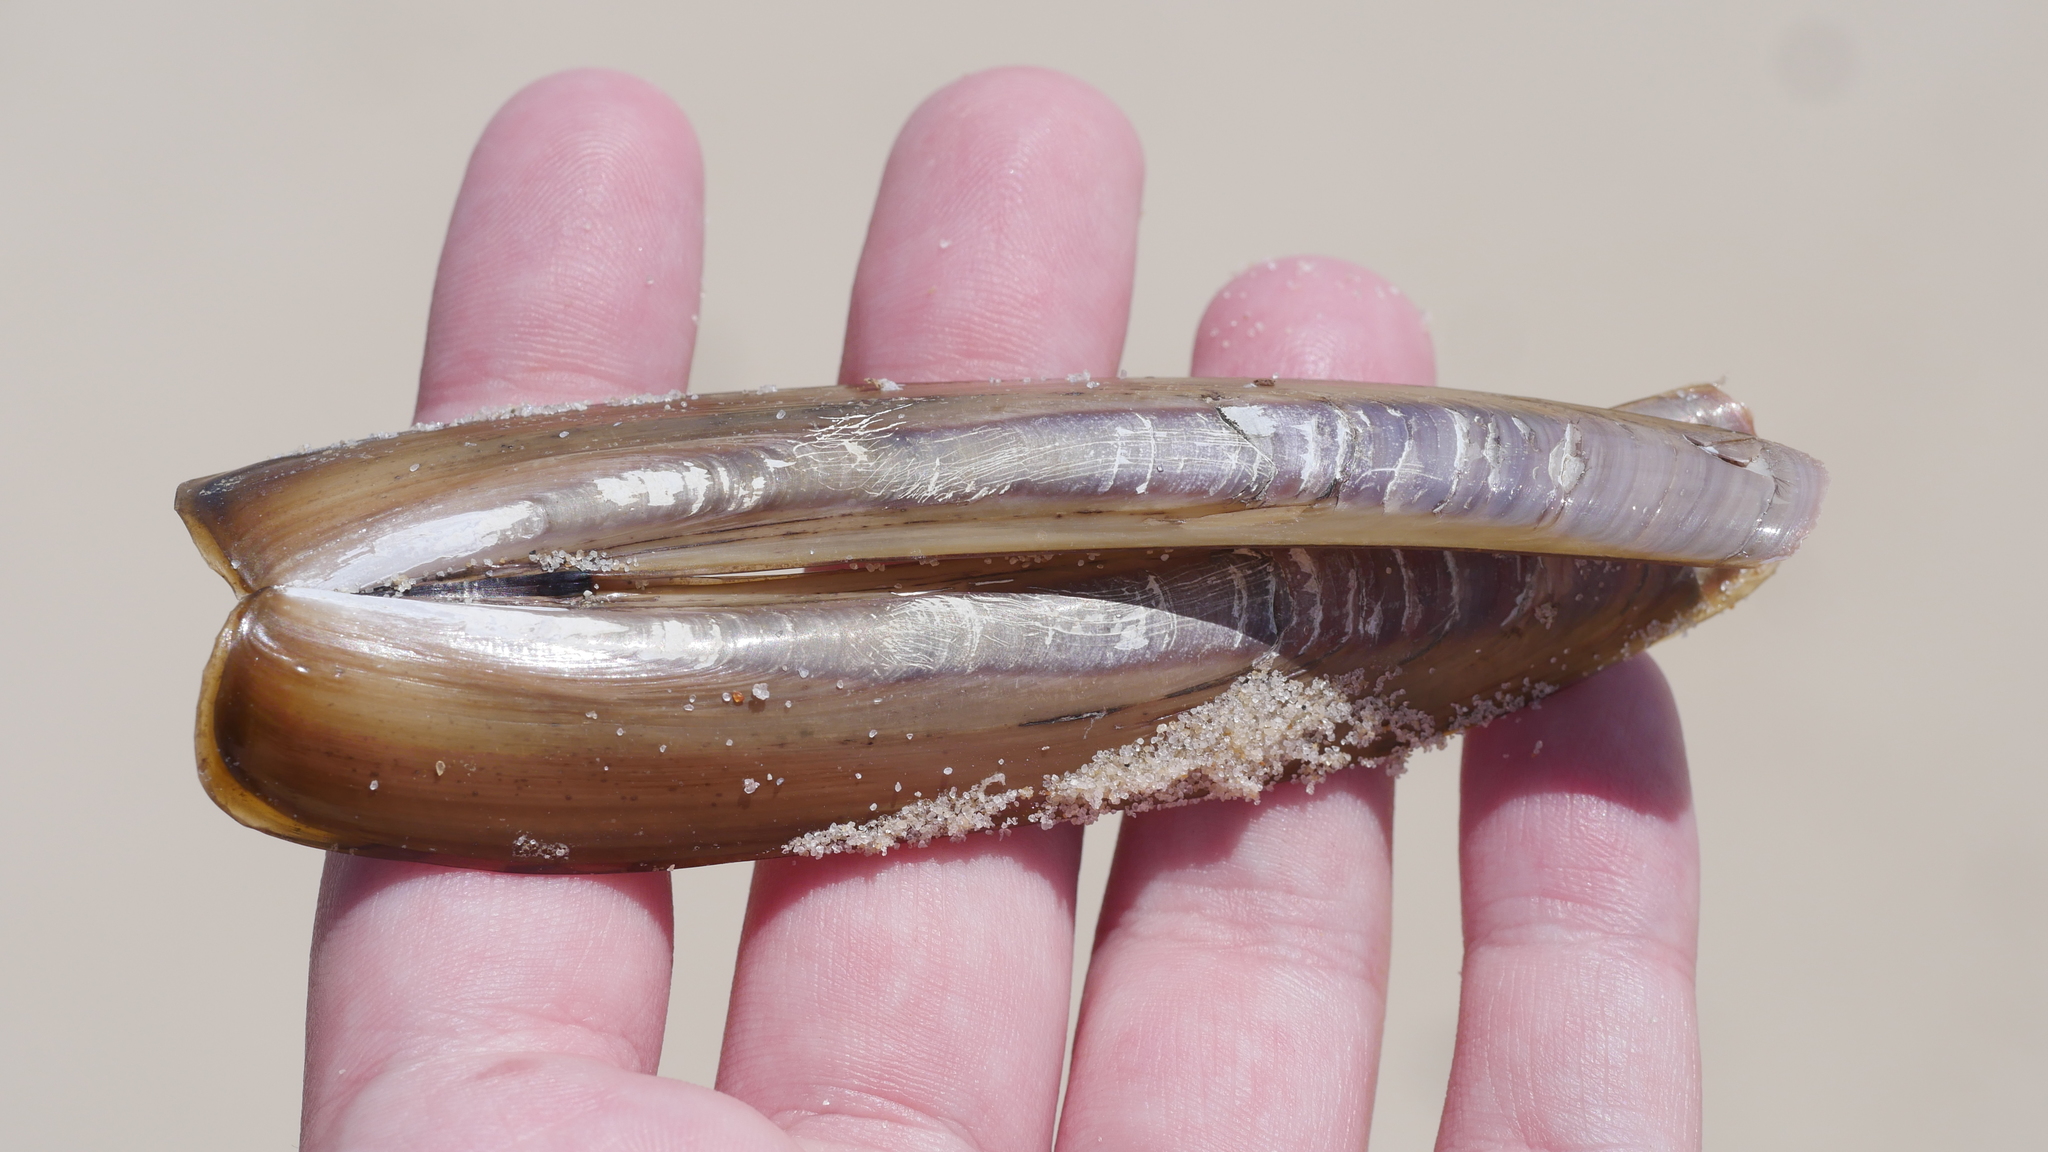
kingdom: Animalia
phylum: Mollusca
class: Bivalvia
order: Adapedonta
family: Pharidae
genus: Ensis
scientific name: Ensis leei
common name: American jack knife clam
